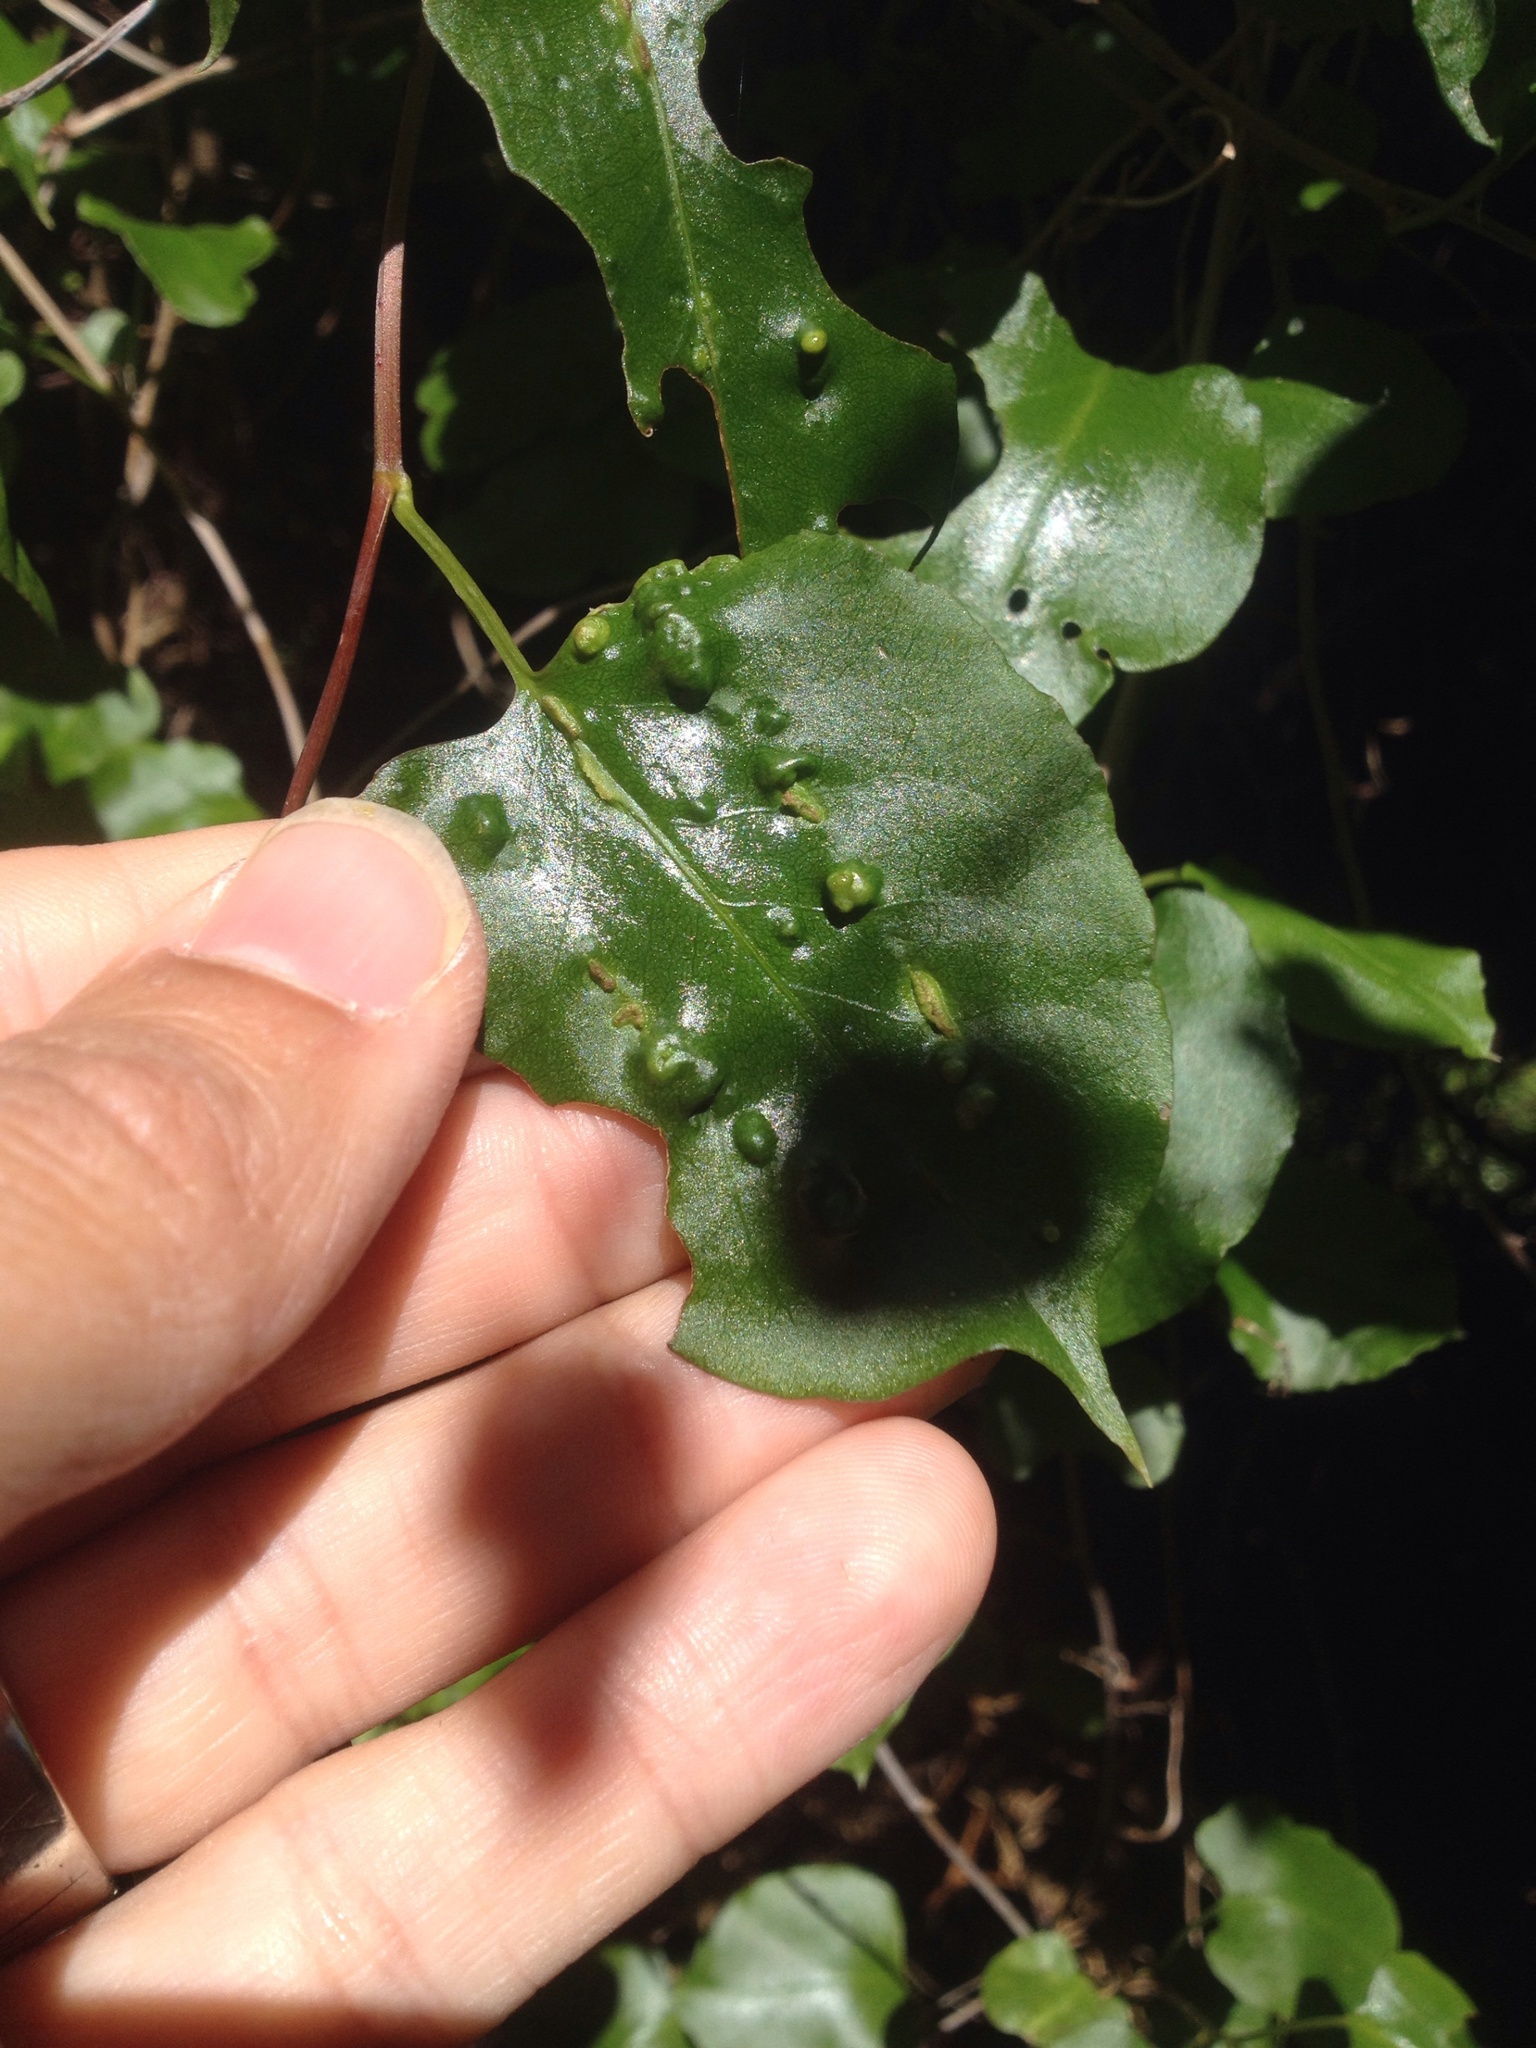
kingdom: Animalia
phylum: Arthropoda
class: Arachnida
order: Trombidiformes
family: Eriophyidae
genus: Aceria
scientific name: Aceria lamii
